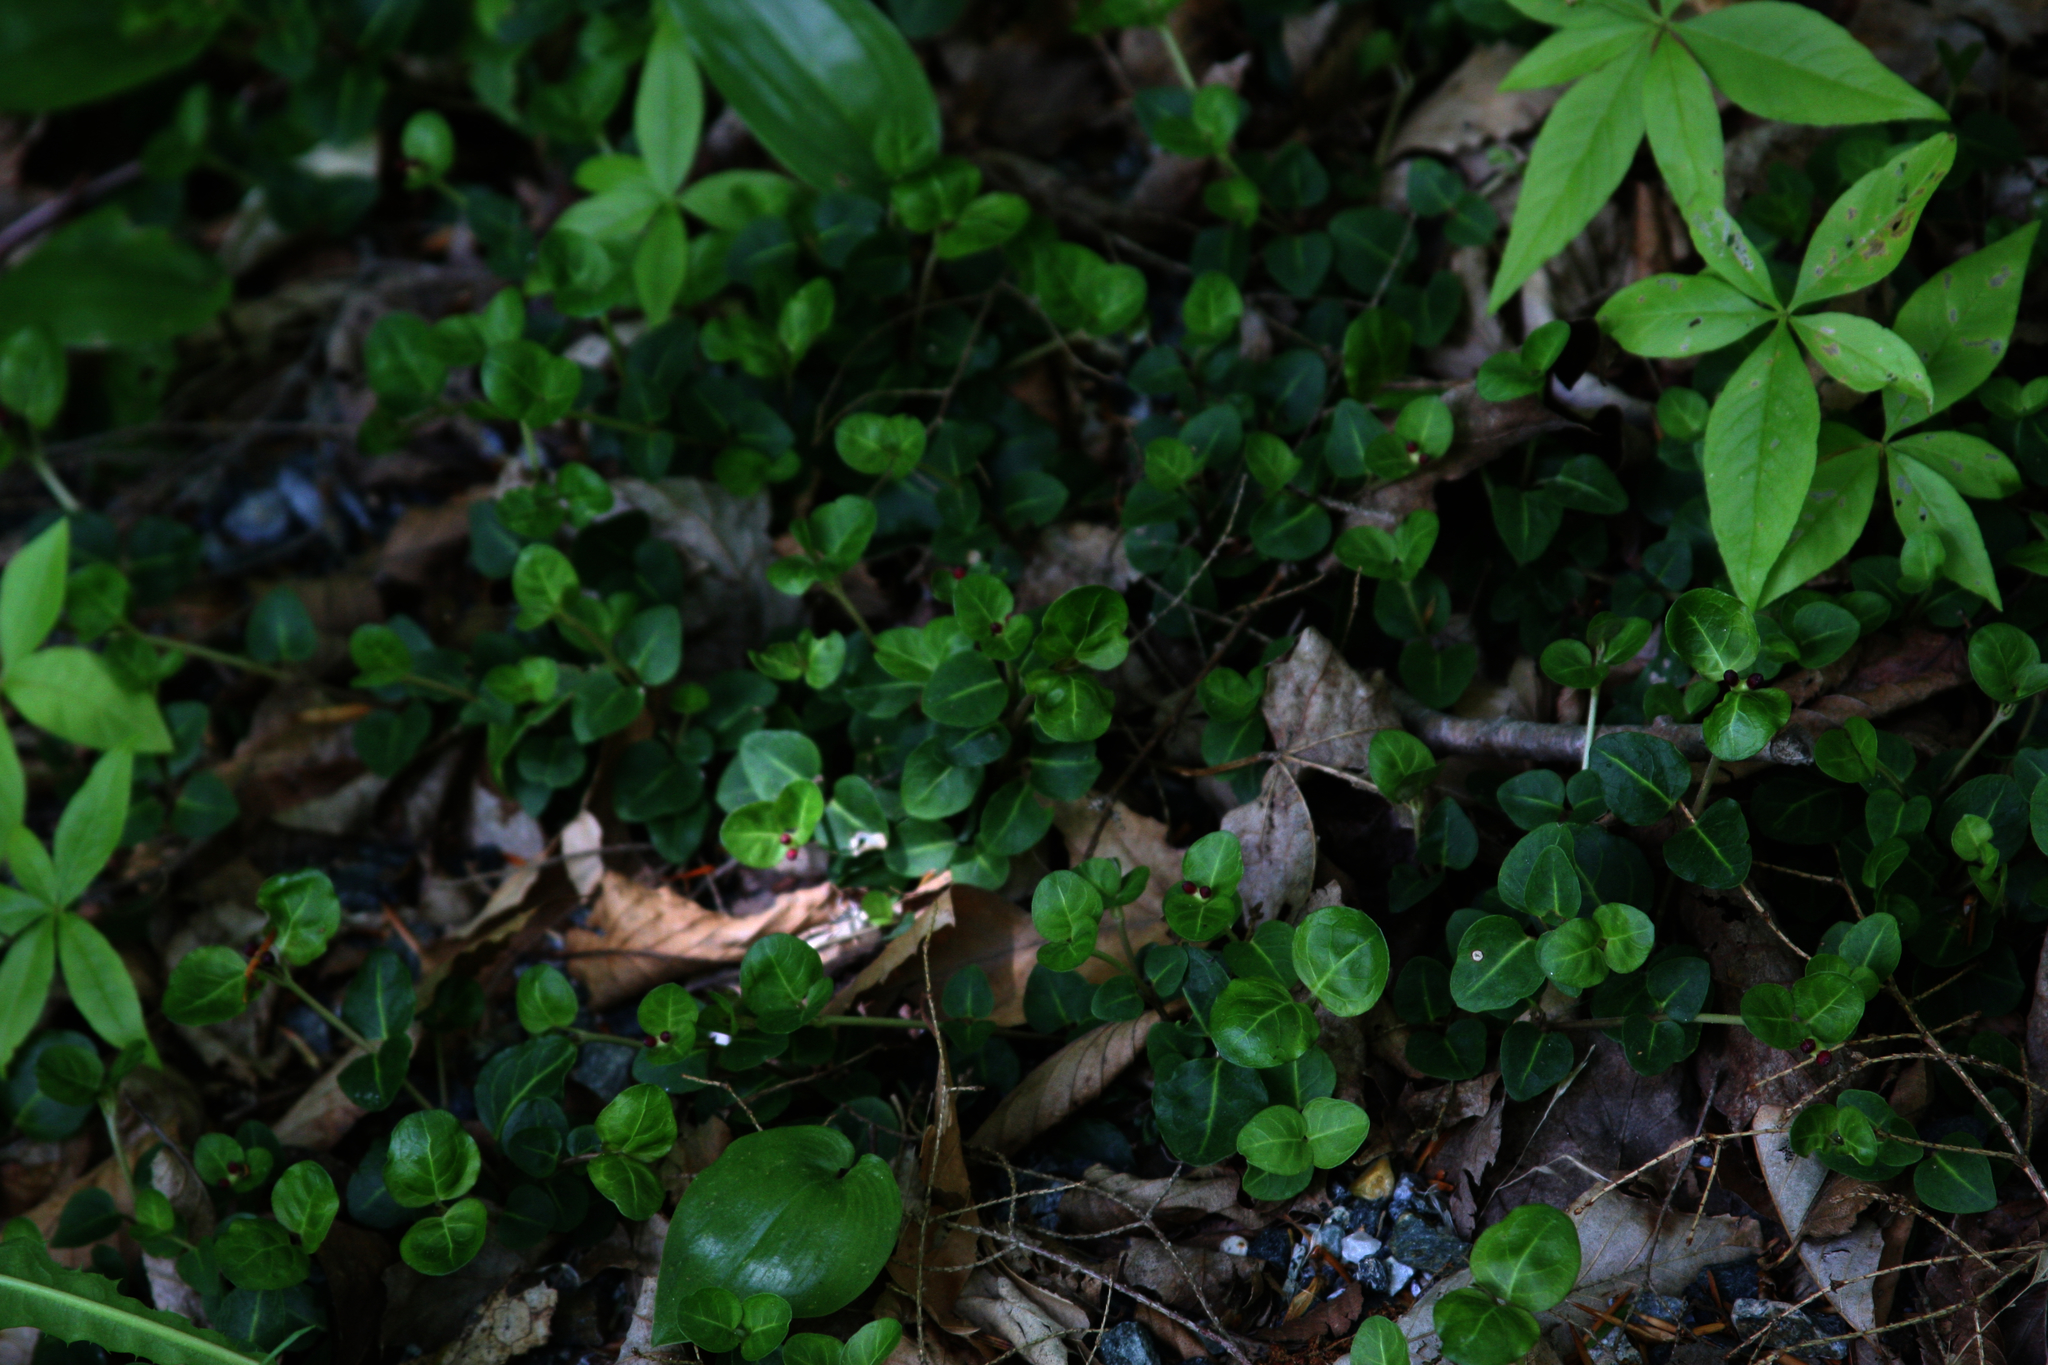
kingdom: Plantae
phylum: Tracheophyta
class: Liliopsida
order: Asparagales
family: Asparagaceae
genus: Maianthemum
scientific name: Maianthemum canadense
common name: False lily-of-the-valley
